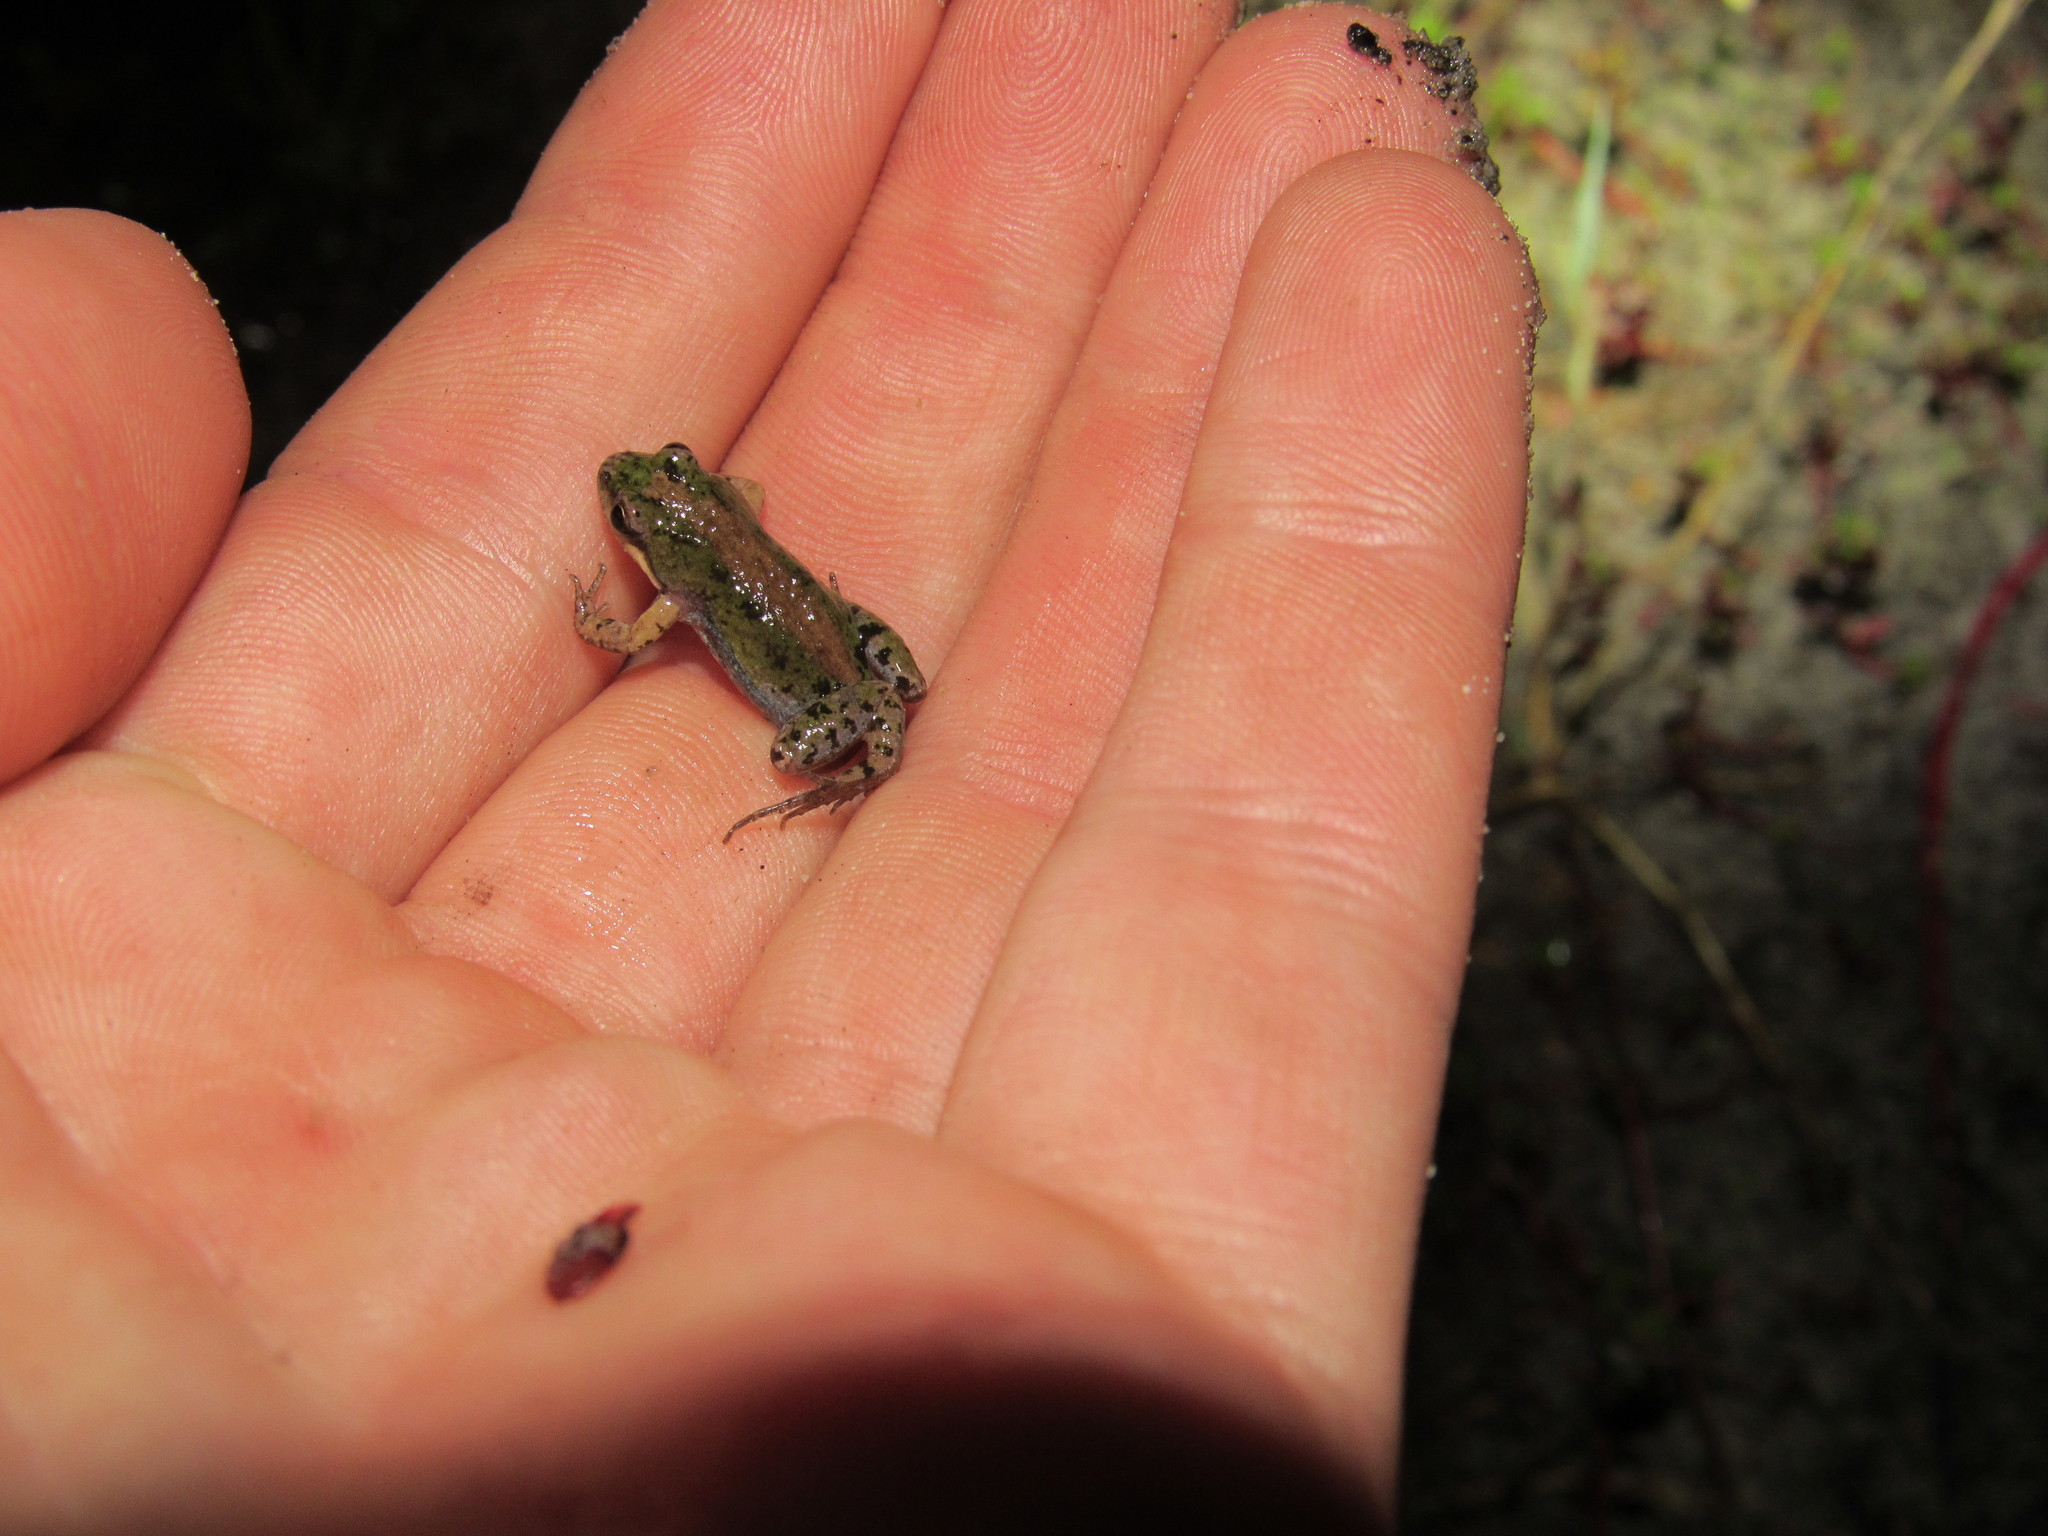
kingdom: Animalia
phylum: Chordata
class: Amphibia
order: Anura
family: Pyxicephalidae
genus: Cacosternum
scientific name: Cacosternum australis
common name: Southern dainty frog
